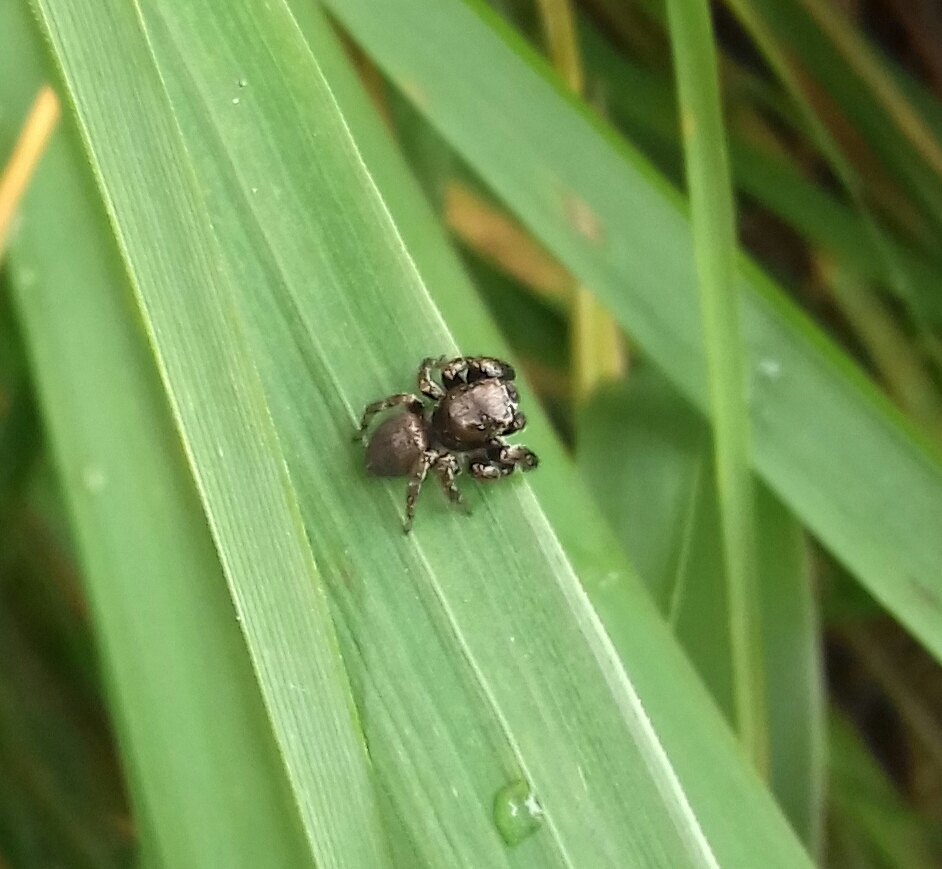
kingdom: Animalia
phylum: Arthropoda
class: Arachnida
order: Araneae
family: Salticidae
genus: Evarcha
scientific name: Evarcha arcuata
